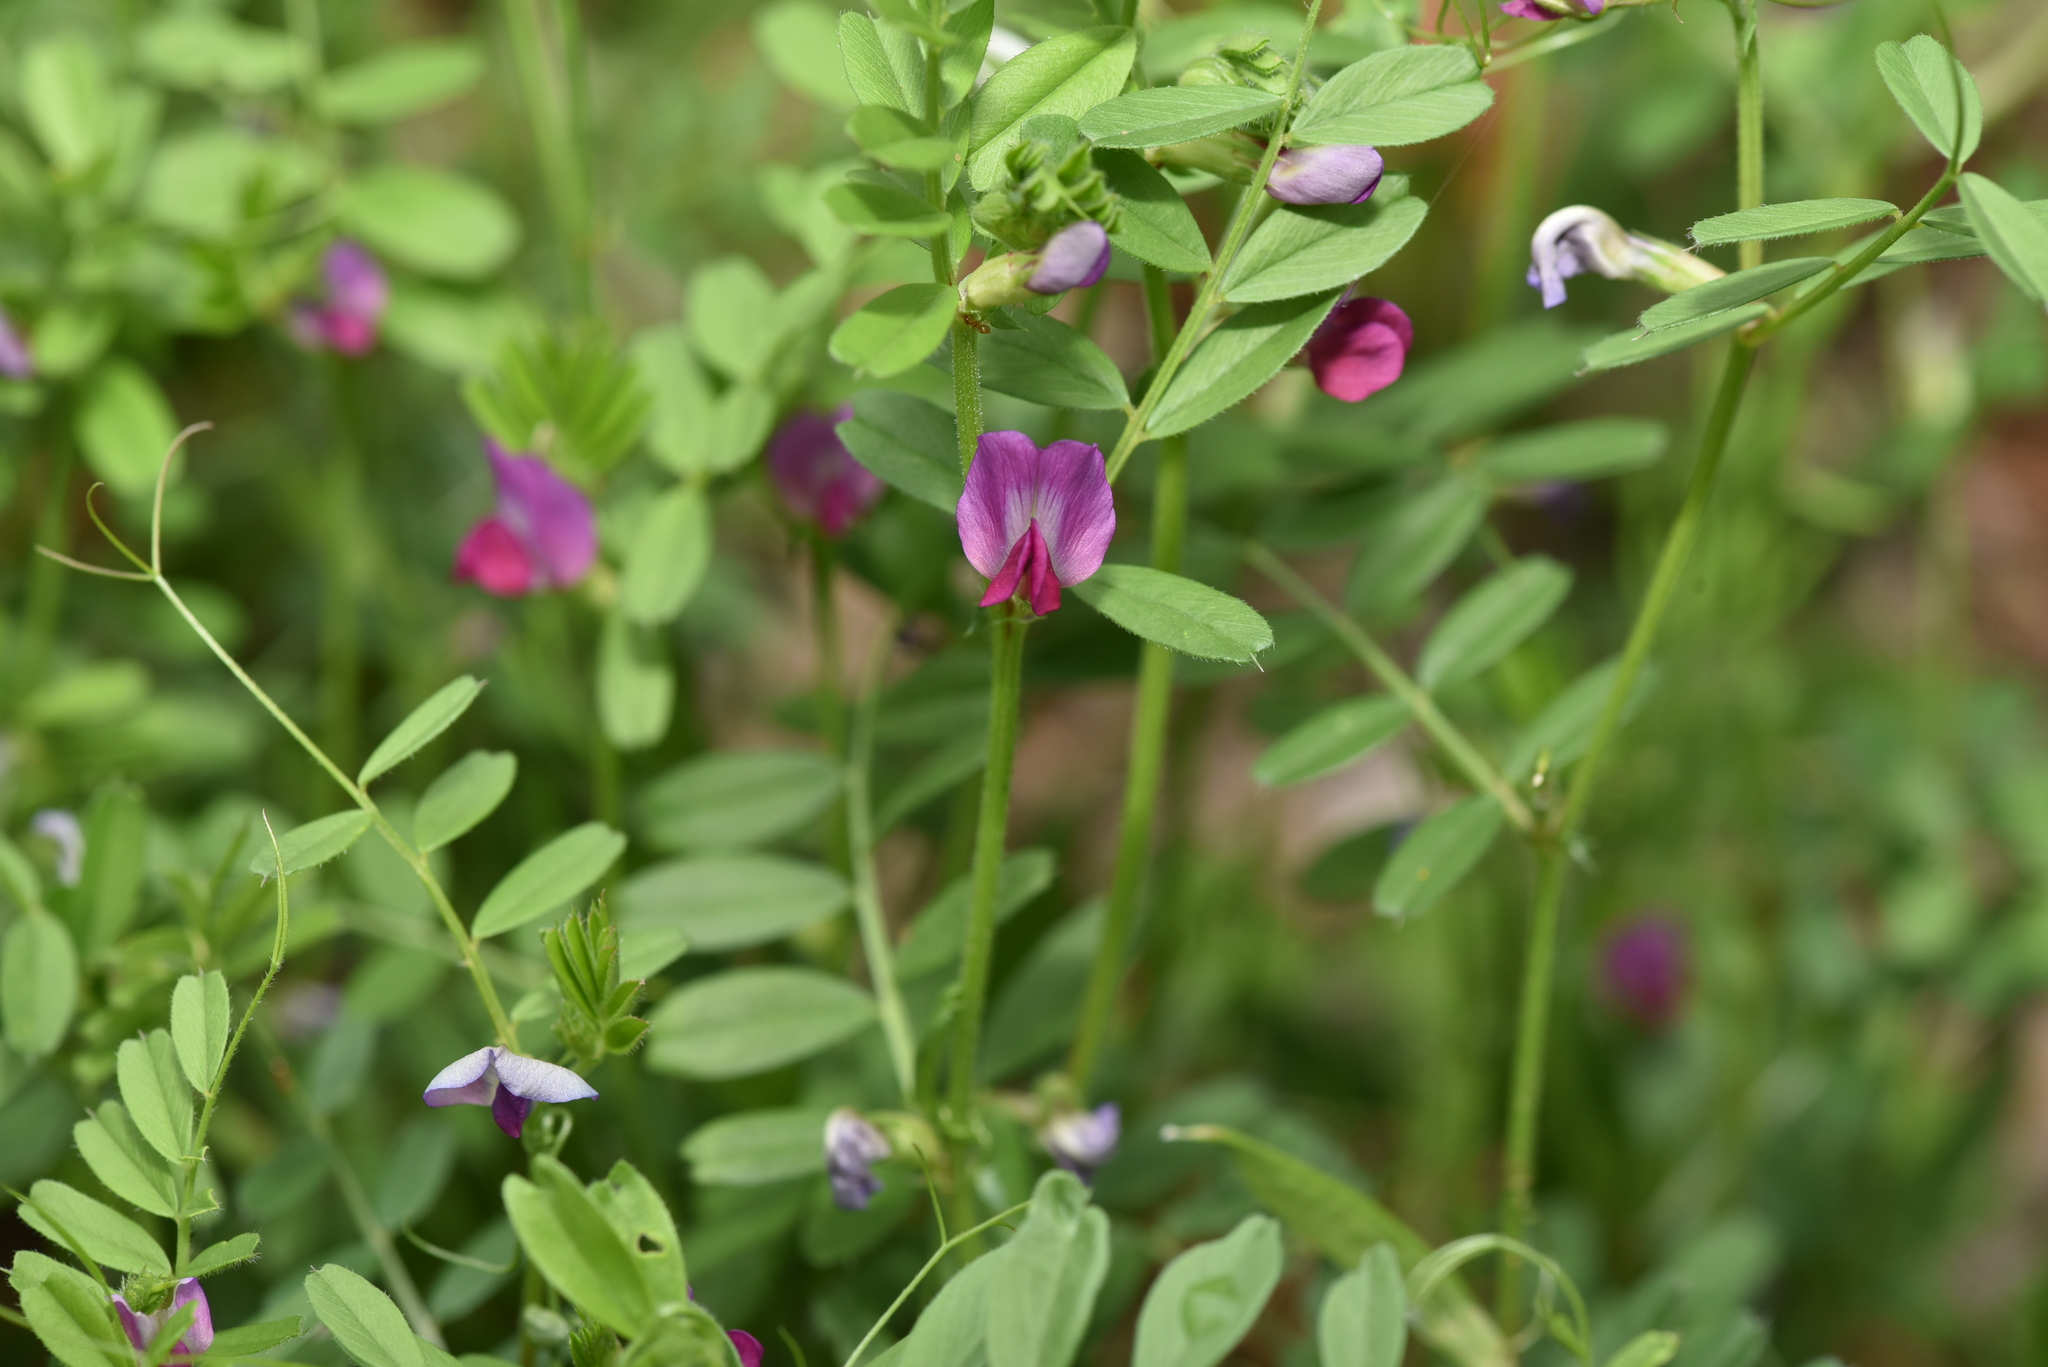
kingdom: Plantae
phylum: Tracheophyta
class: Magnoliopsida
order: Fabales
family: Fabaceae
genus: Vicia
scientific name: Vicia sativa
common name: Garden vetch
